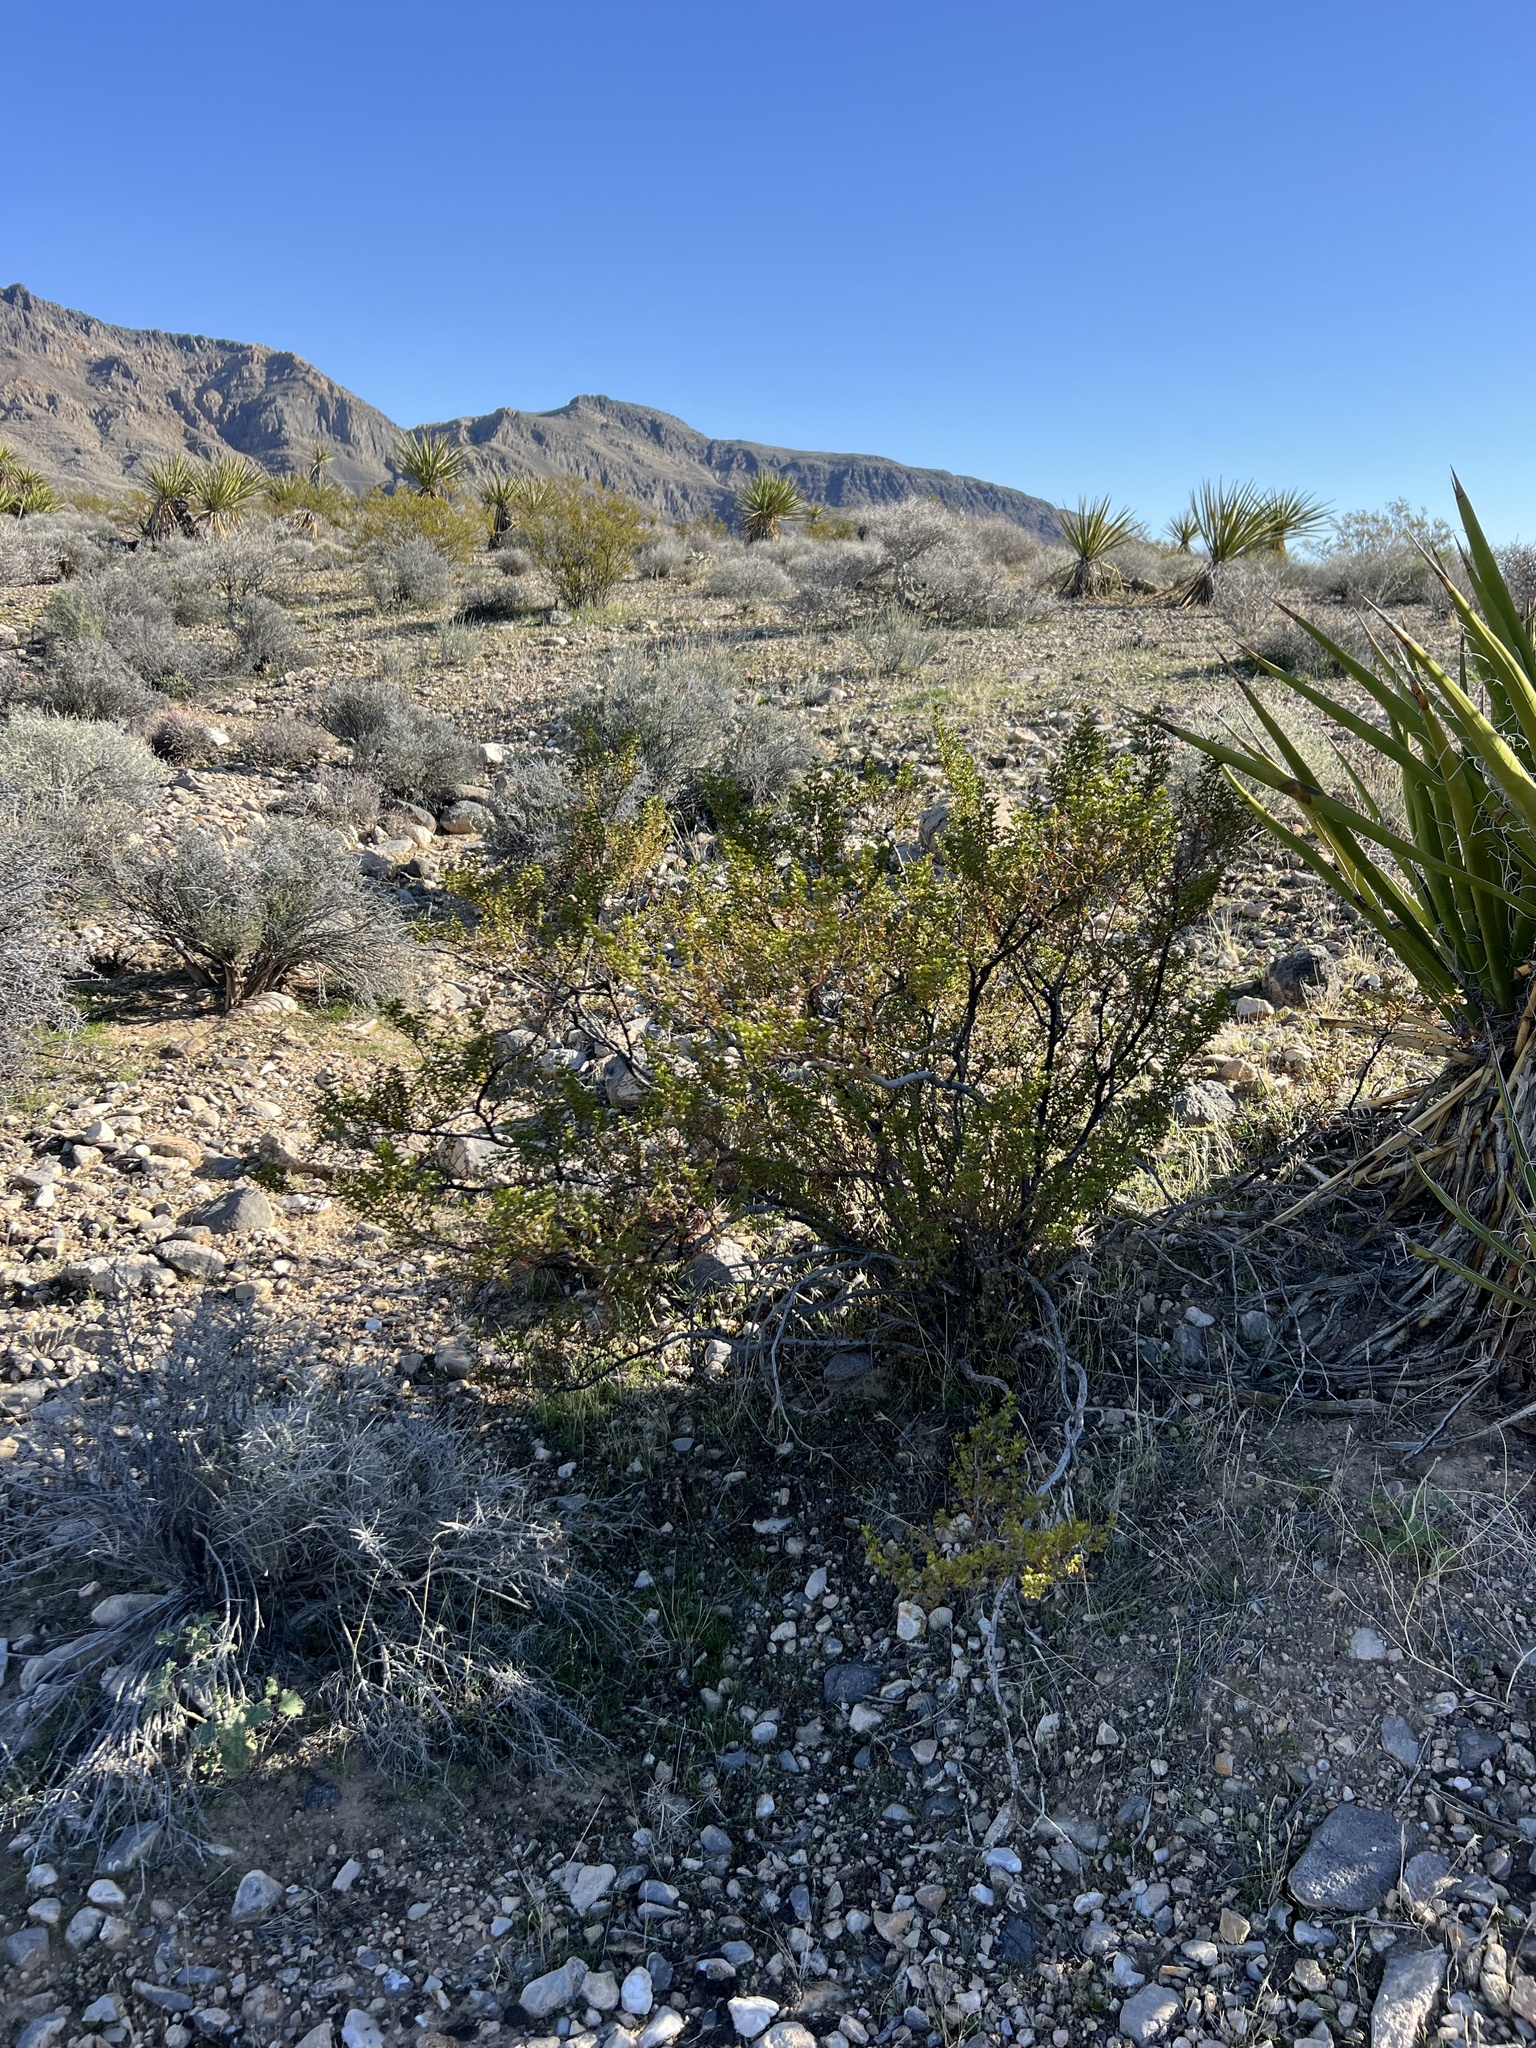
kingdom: Plantae
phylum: Tracheophyta
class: Magnoliopsida
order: Zygophyllales
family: Zygophyllaceae
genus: Larrea
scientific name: Larrea tridentata
